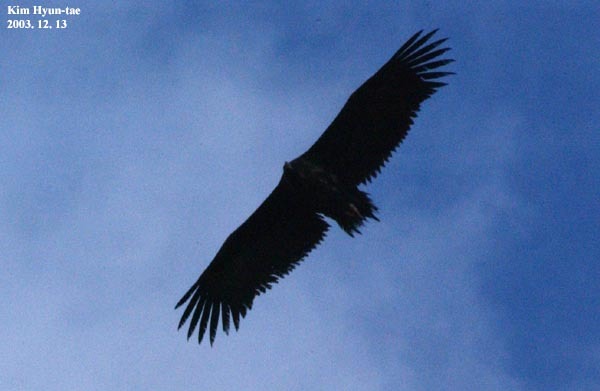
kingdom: Animalia
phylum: Chordata
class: Aves
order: Accipitriformes
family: Accipitridae
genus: Aegypius
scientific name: Aegypius monachus
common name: Cinereous vulture
